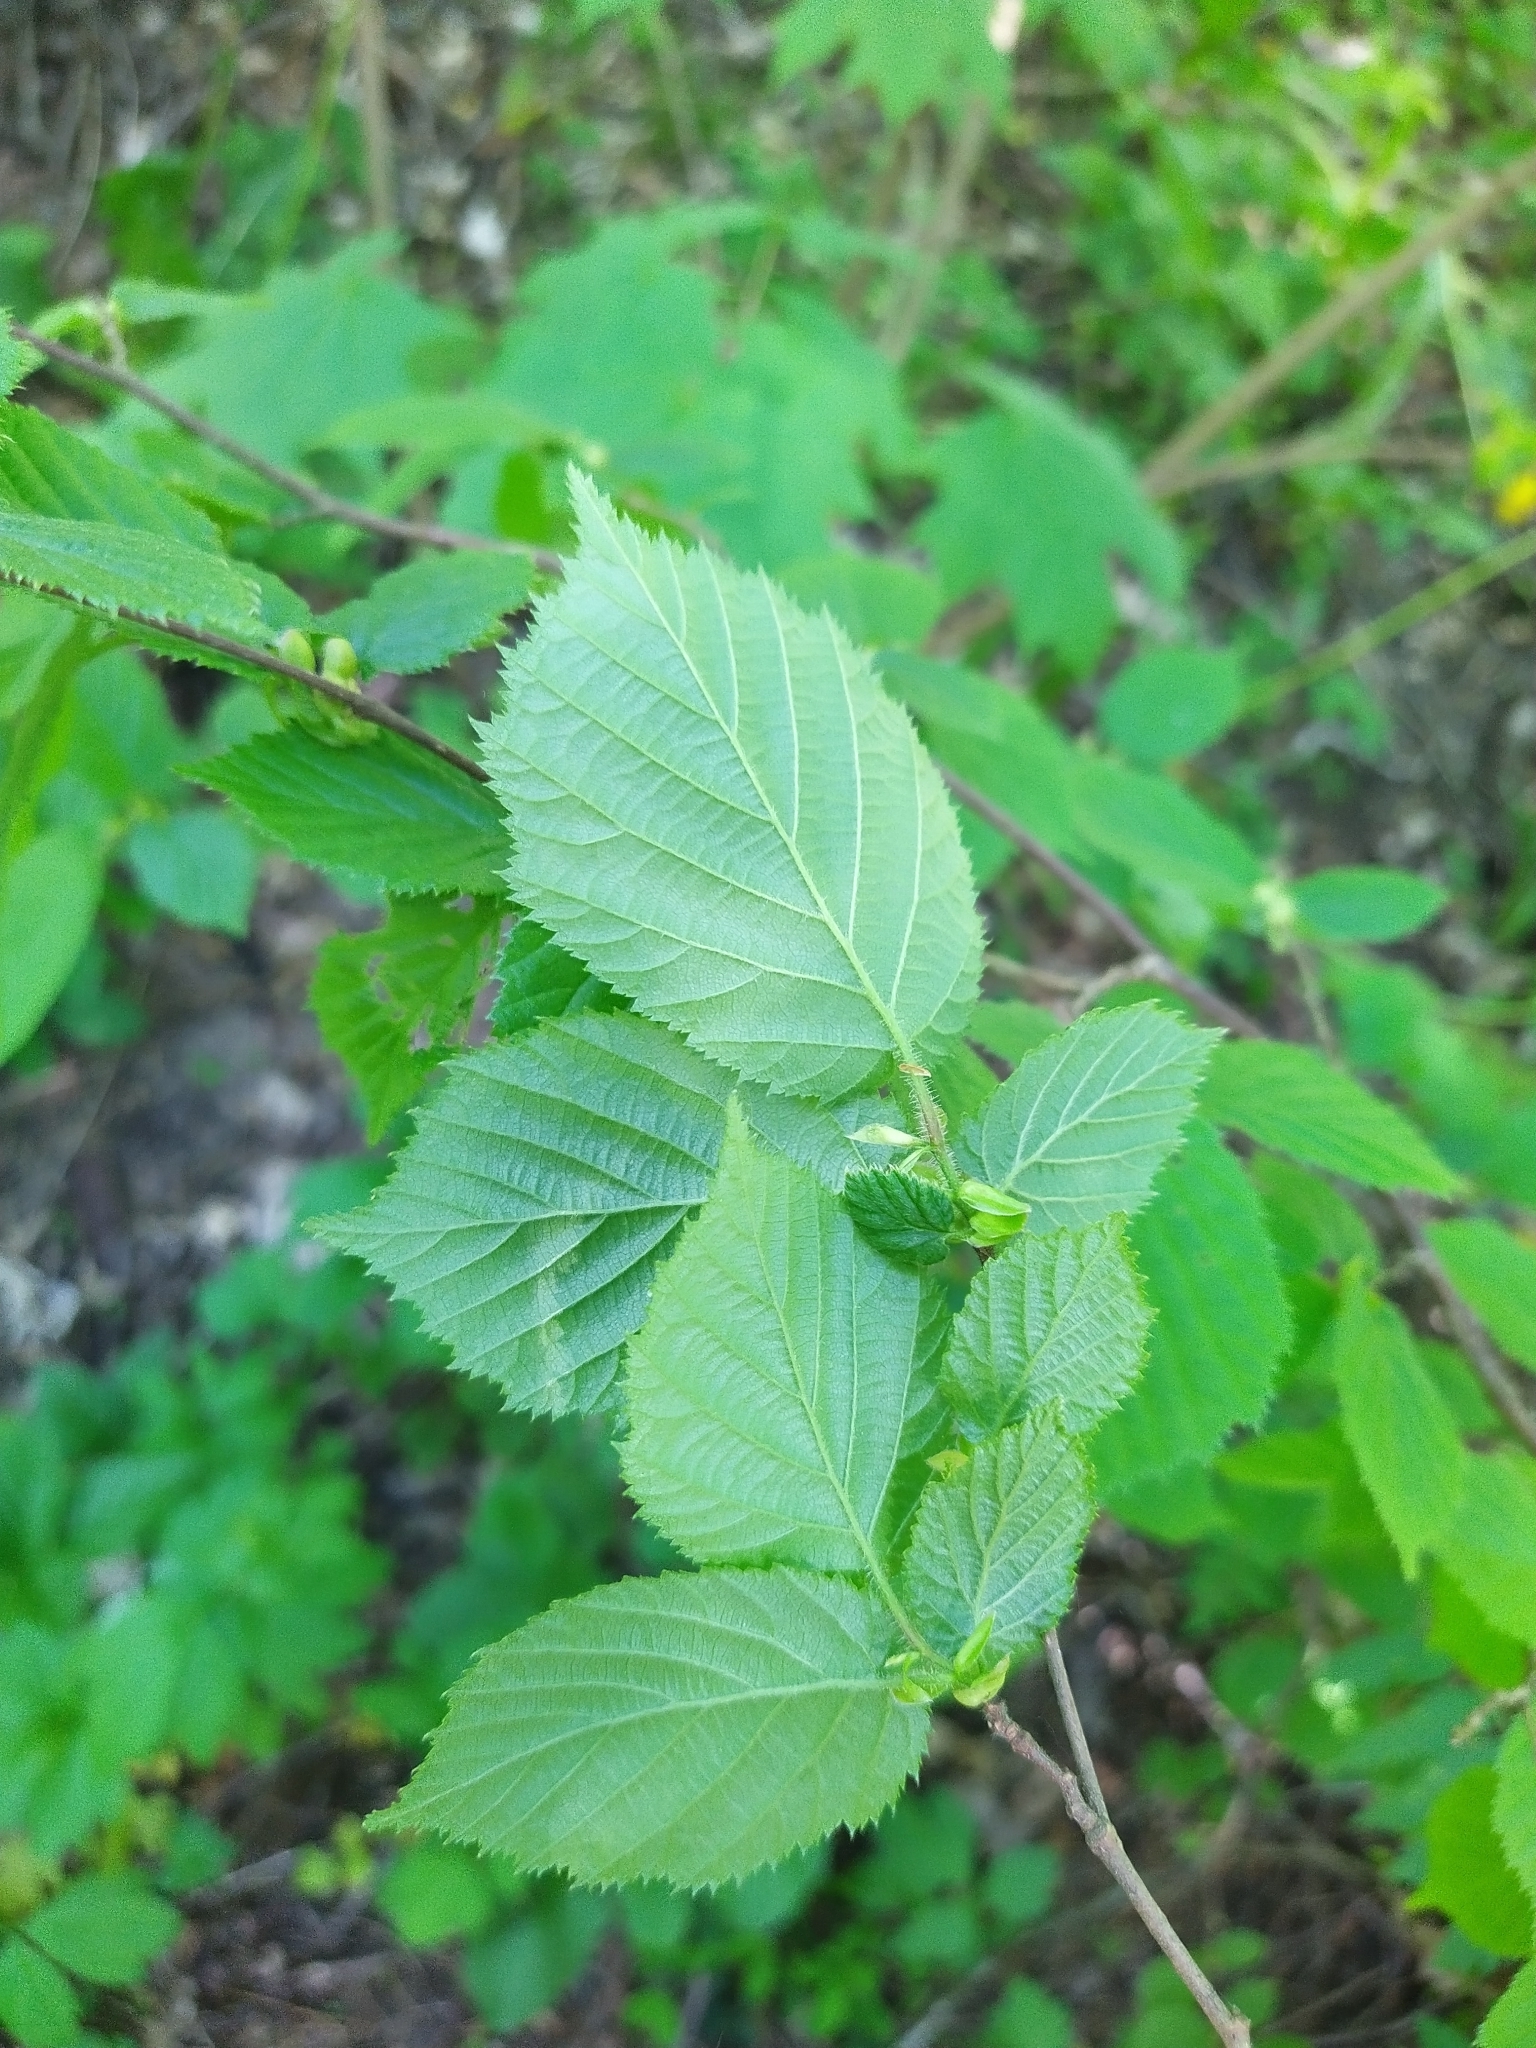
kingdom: Plantae
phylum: Tracheophyta
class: Magnoliopsida
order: Fagales
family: Betulaceae
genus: Corylus
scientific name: Corylus avellana
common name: European hazel
